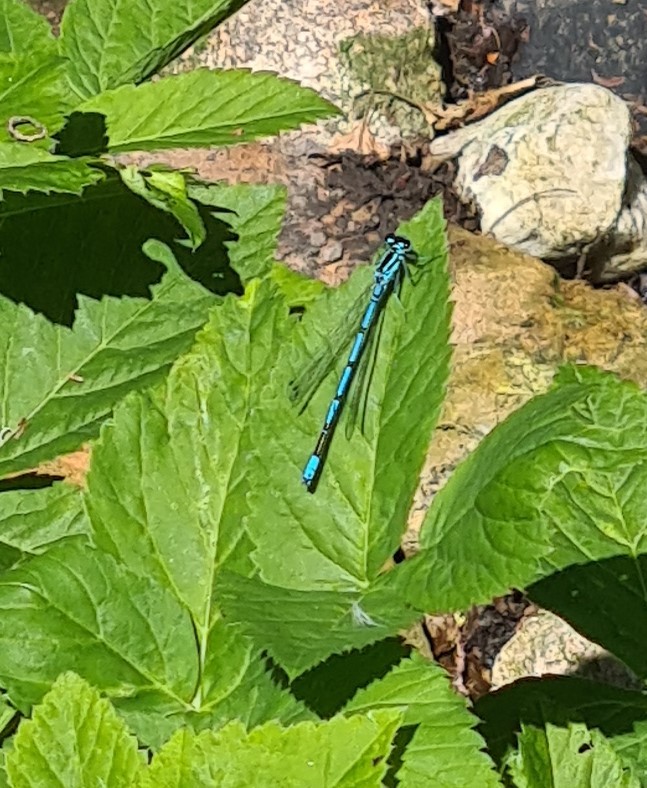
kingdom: Animalia
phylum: Arthropoda
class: Insecta
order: Odonata
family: Coenagrionidae
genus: Coenagrion
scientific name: Coenagrion puella
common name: Azure damselfly
